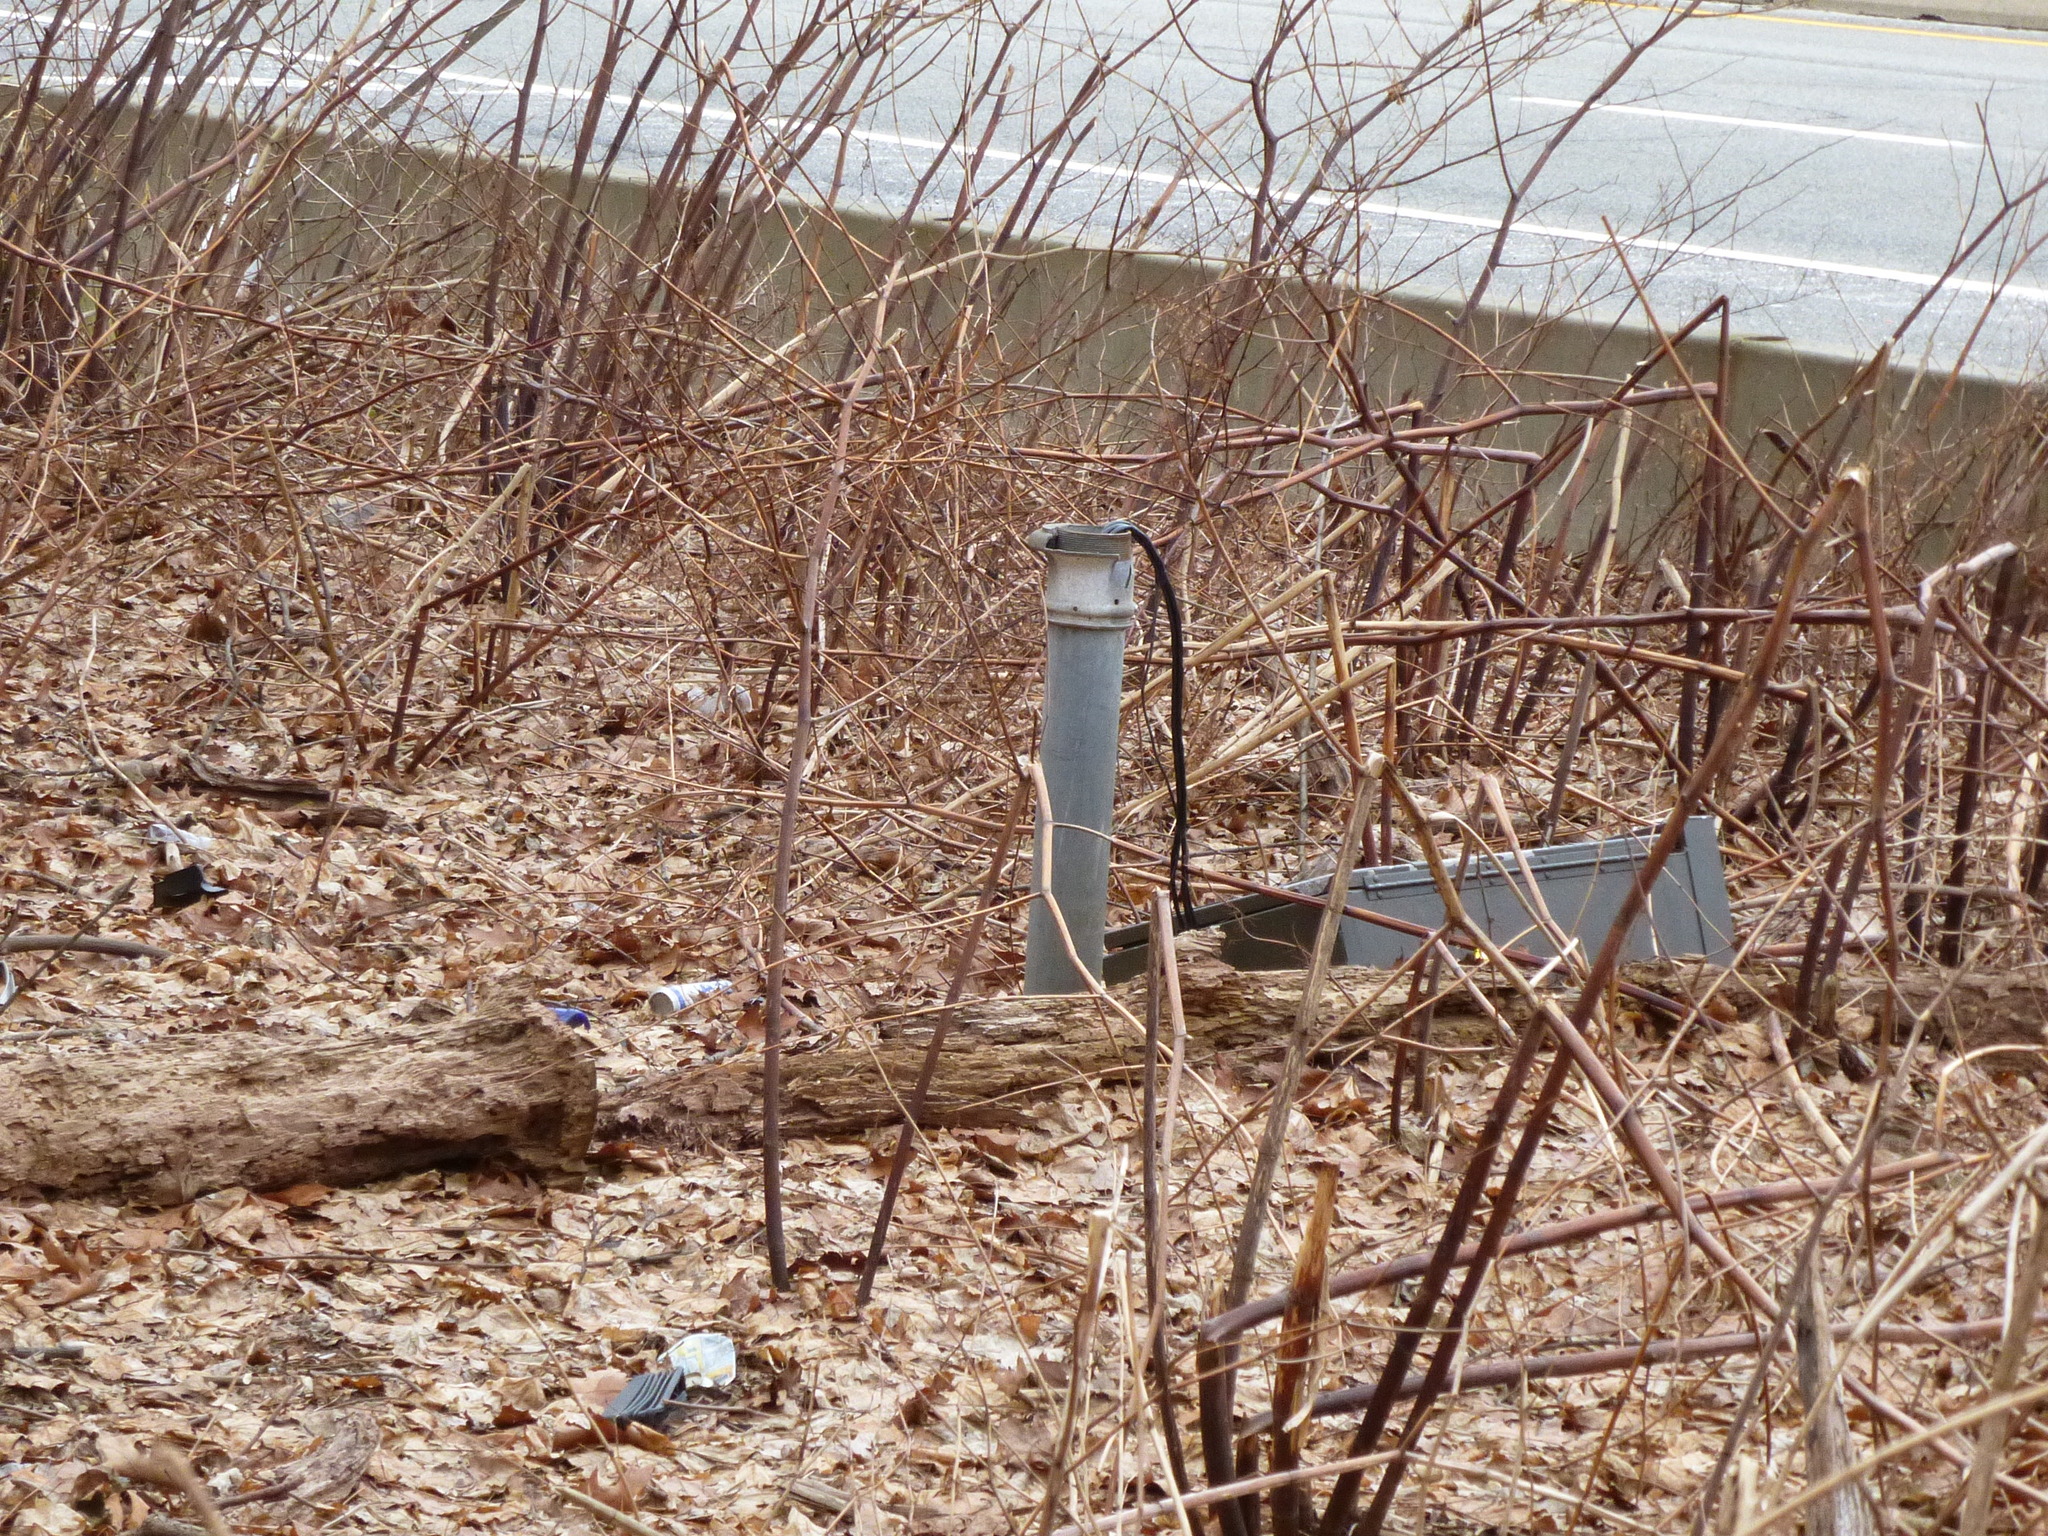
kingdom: Plantae
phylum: Tracheophyta
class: Magnoliopsida
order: Caryophyllales
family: Polygonaceae
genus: Reynoutria
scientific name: Reynoutria japonica
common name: Japanese knotweed
